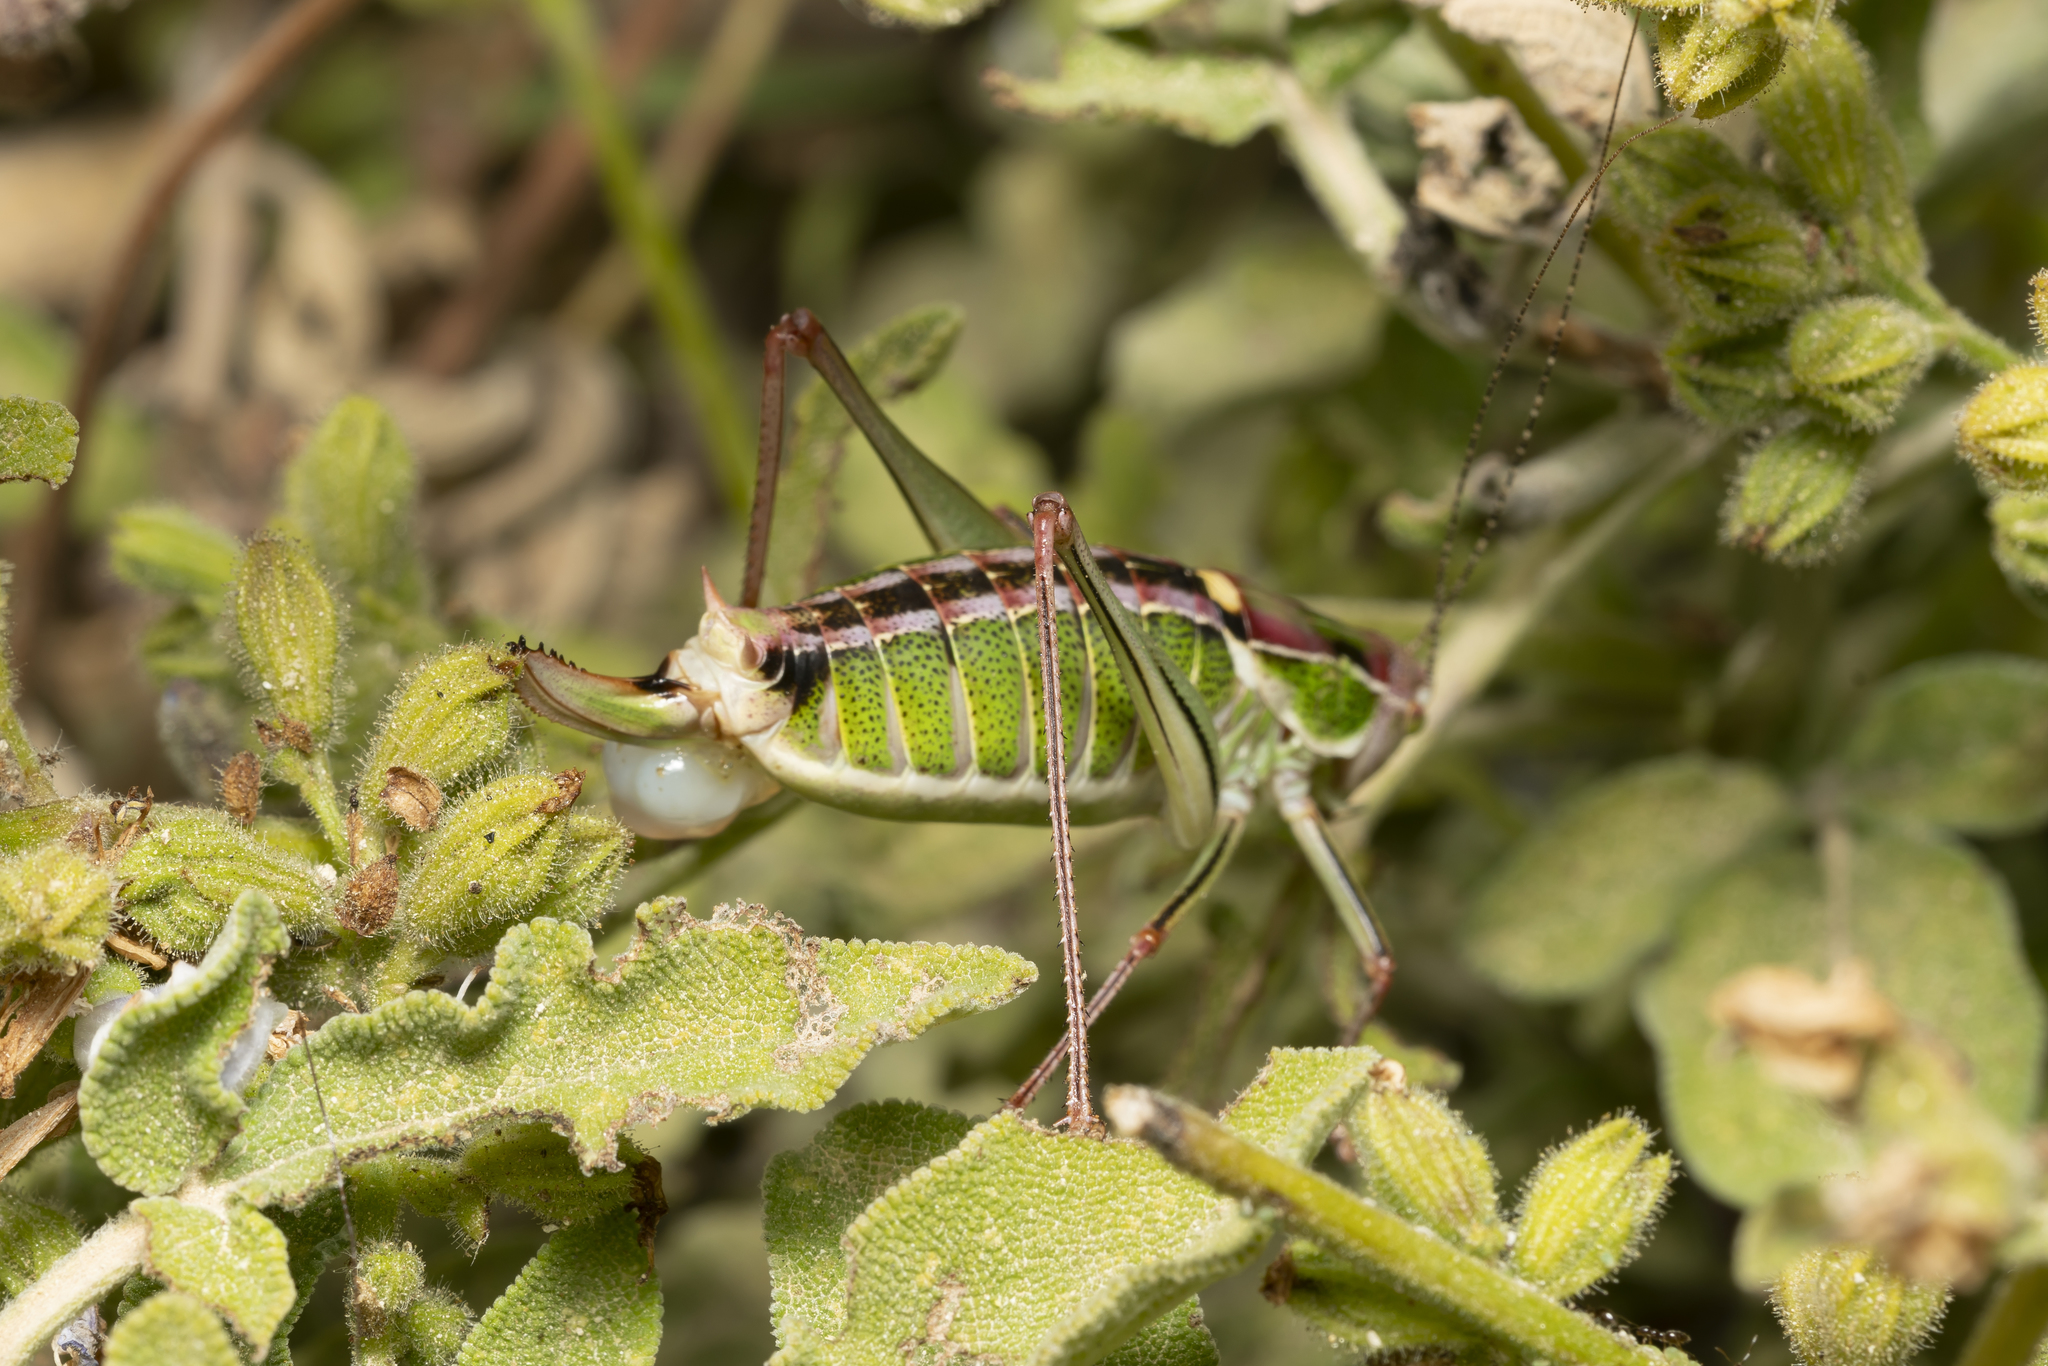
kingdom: Animalia
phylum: Arthropoda
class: Insecta
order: Orthoptera
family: Tettigoniidae
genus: Poecilimon
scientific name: Poecilimon sanctipauli
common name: Saint-paul's bright bush-cricket
